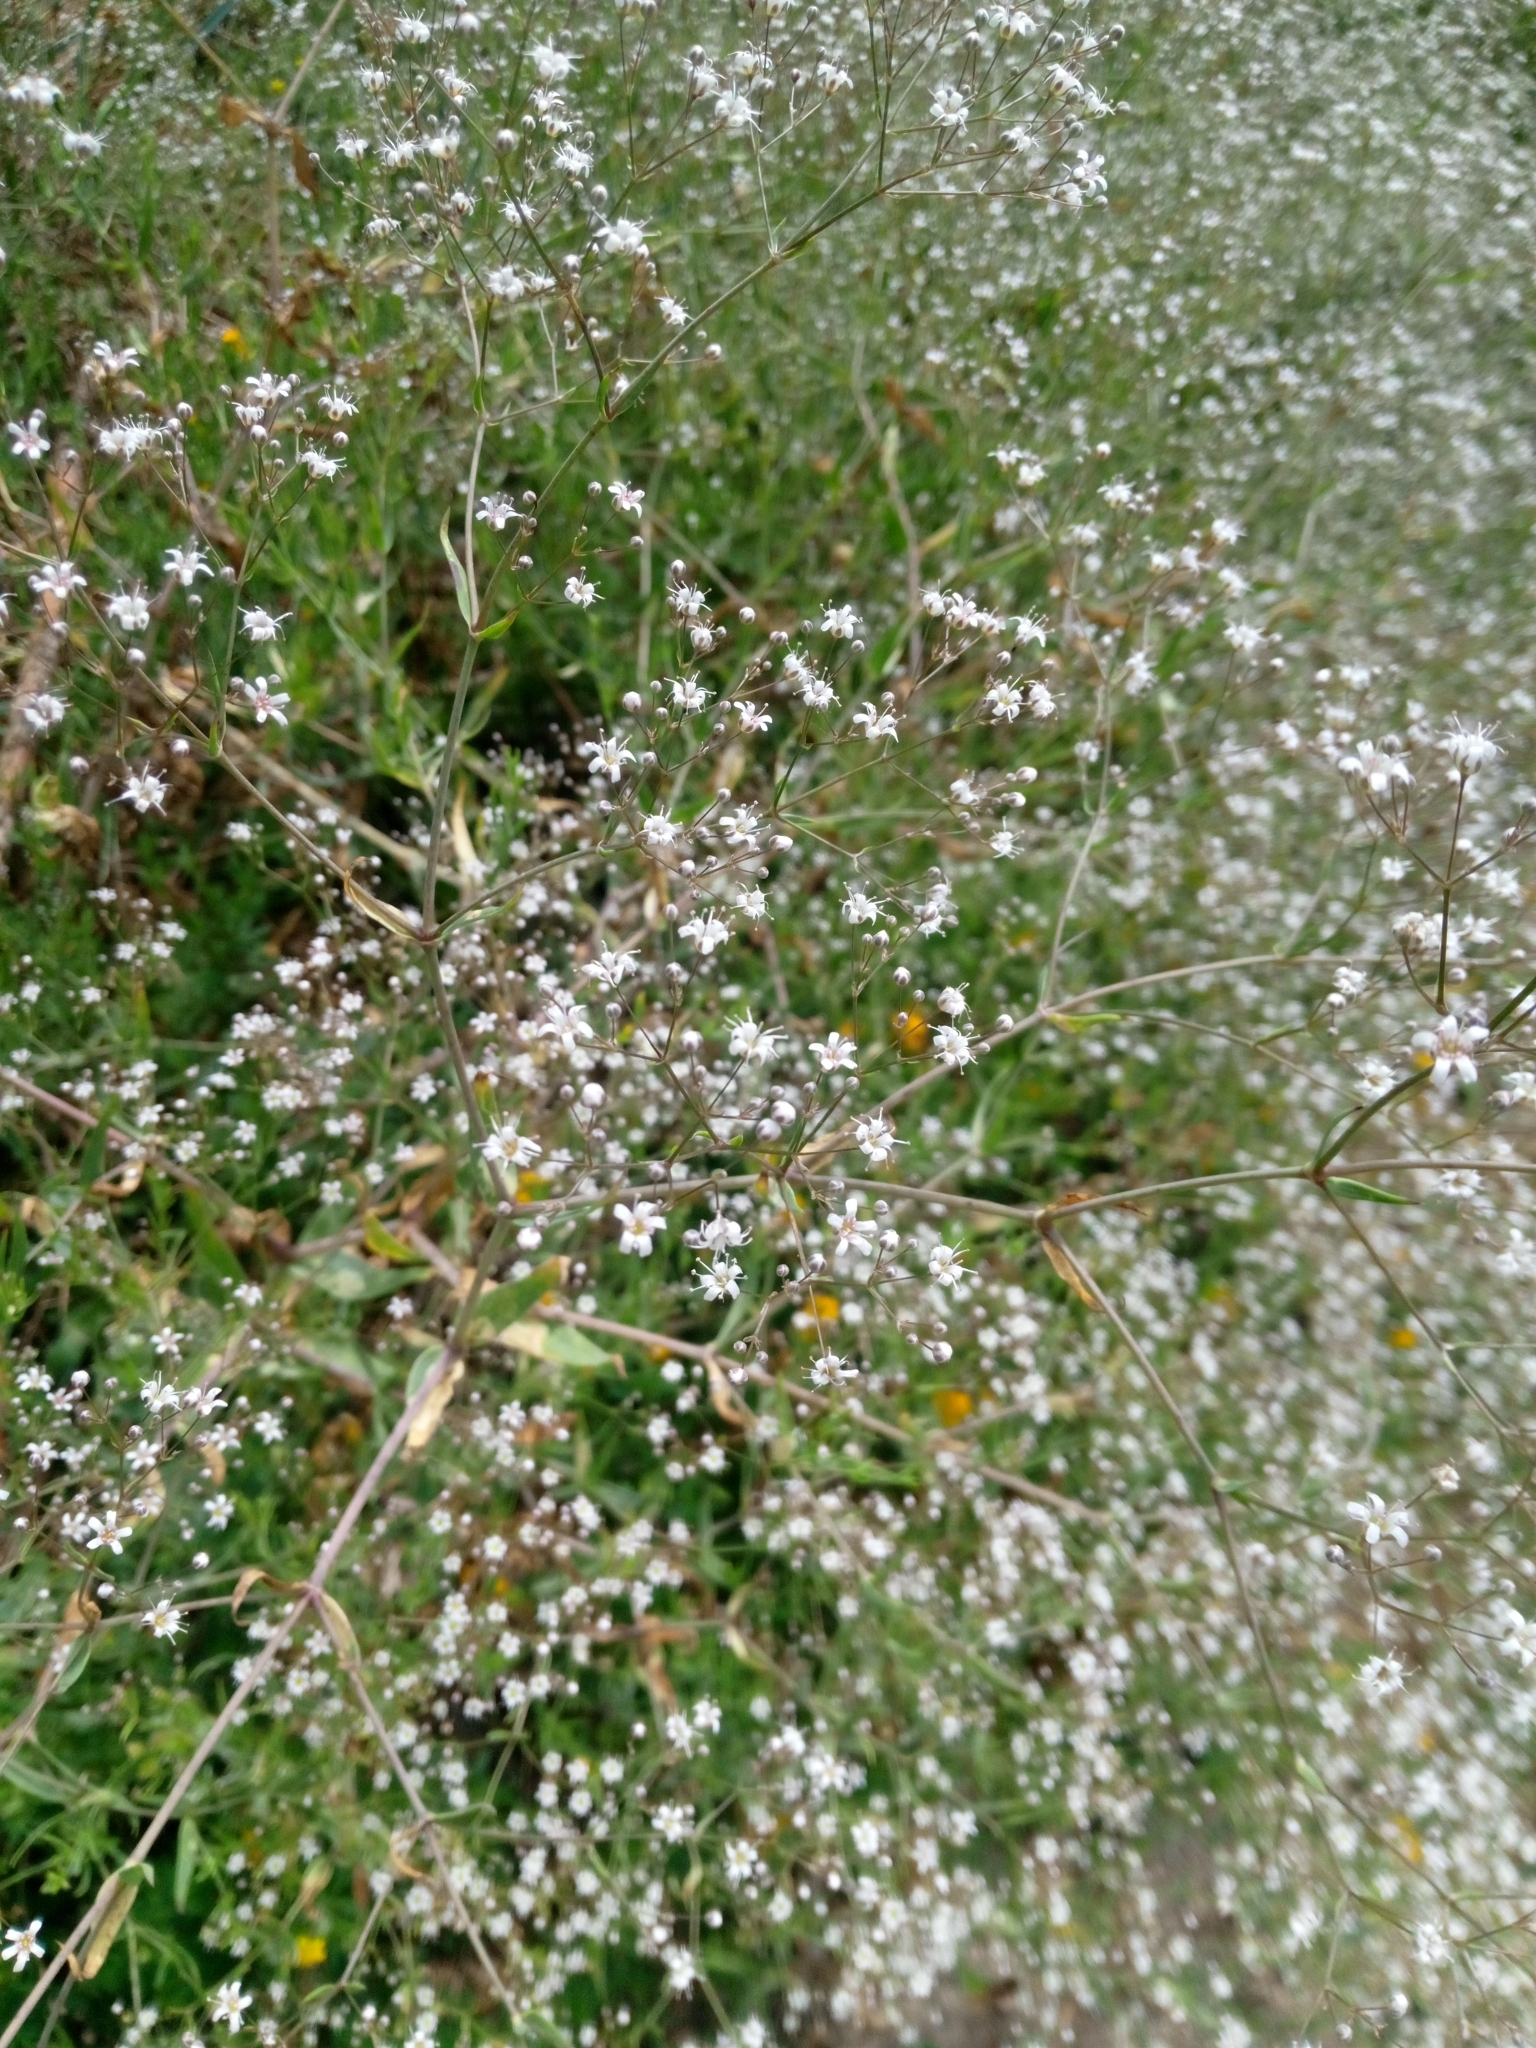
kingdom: Plantae
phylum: Tracheophyta
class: Magnoliopsida
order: Caryophyllales
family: Caryophyllaceae
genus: Gypsophila
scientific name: Gypsophila paniculata
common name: Baby's-breath
